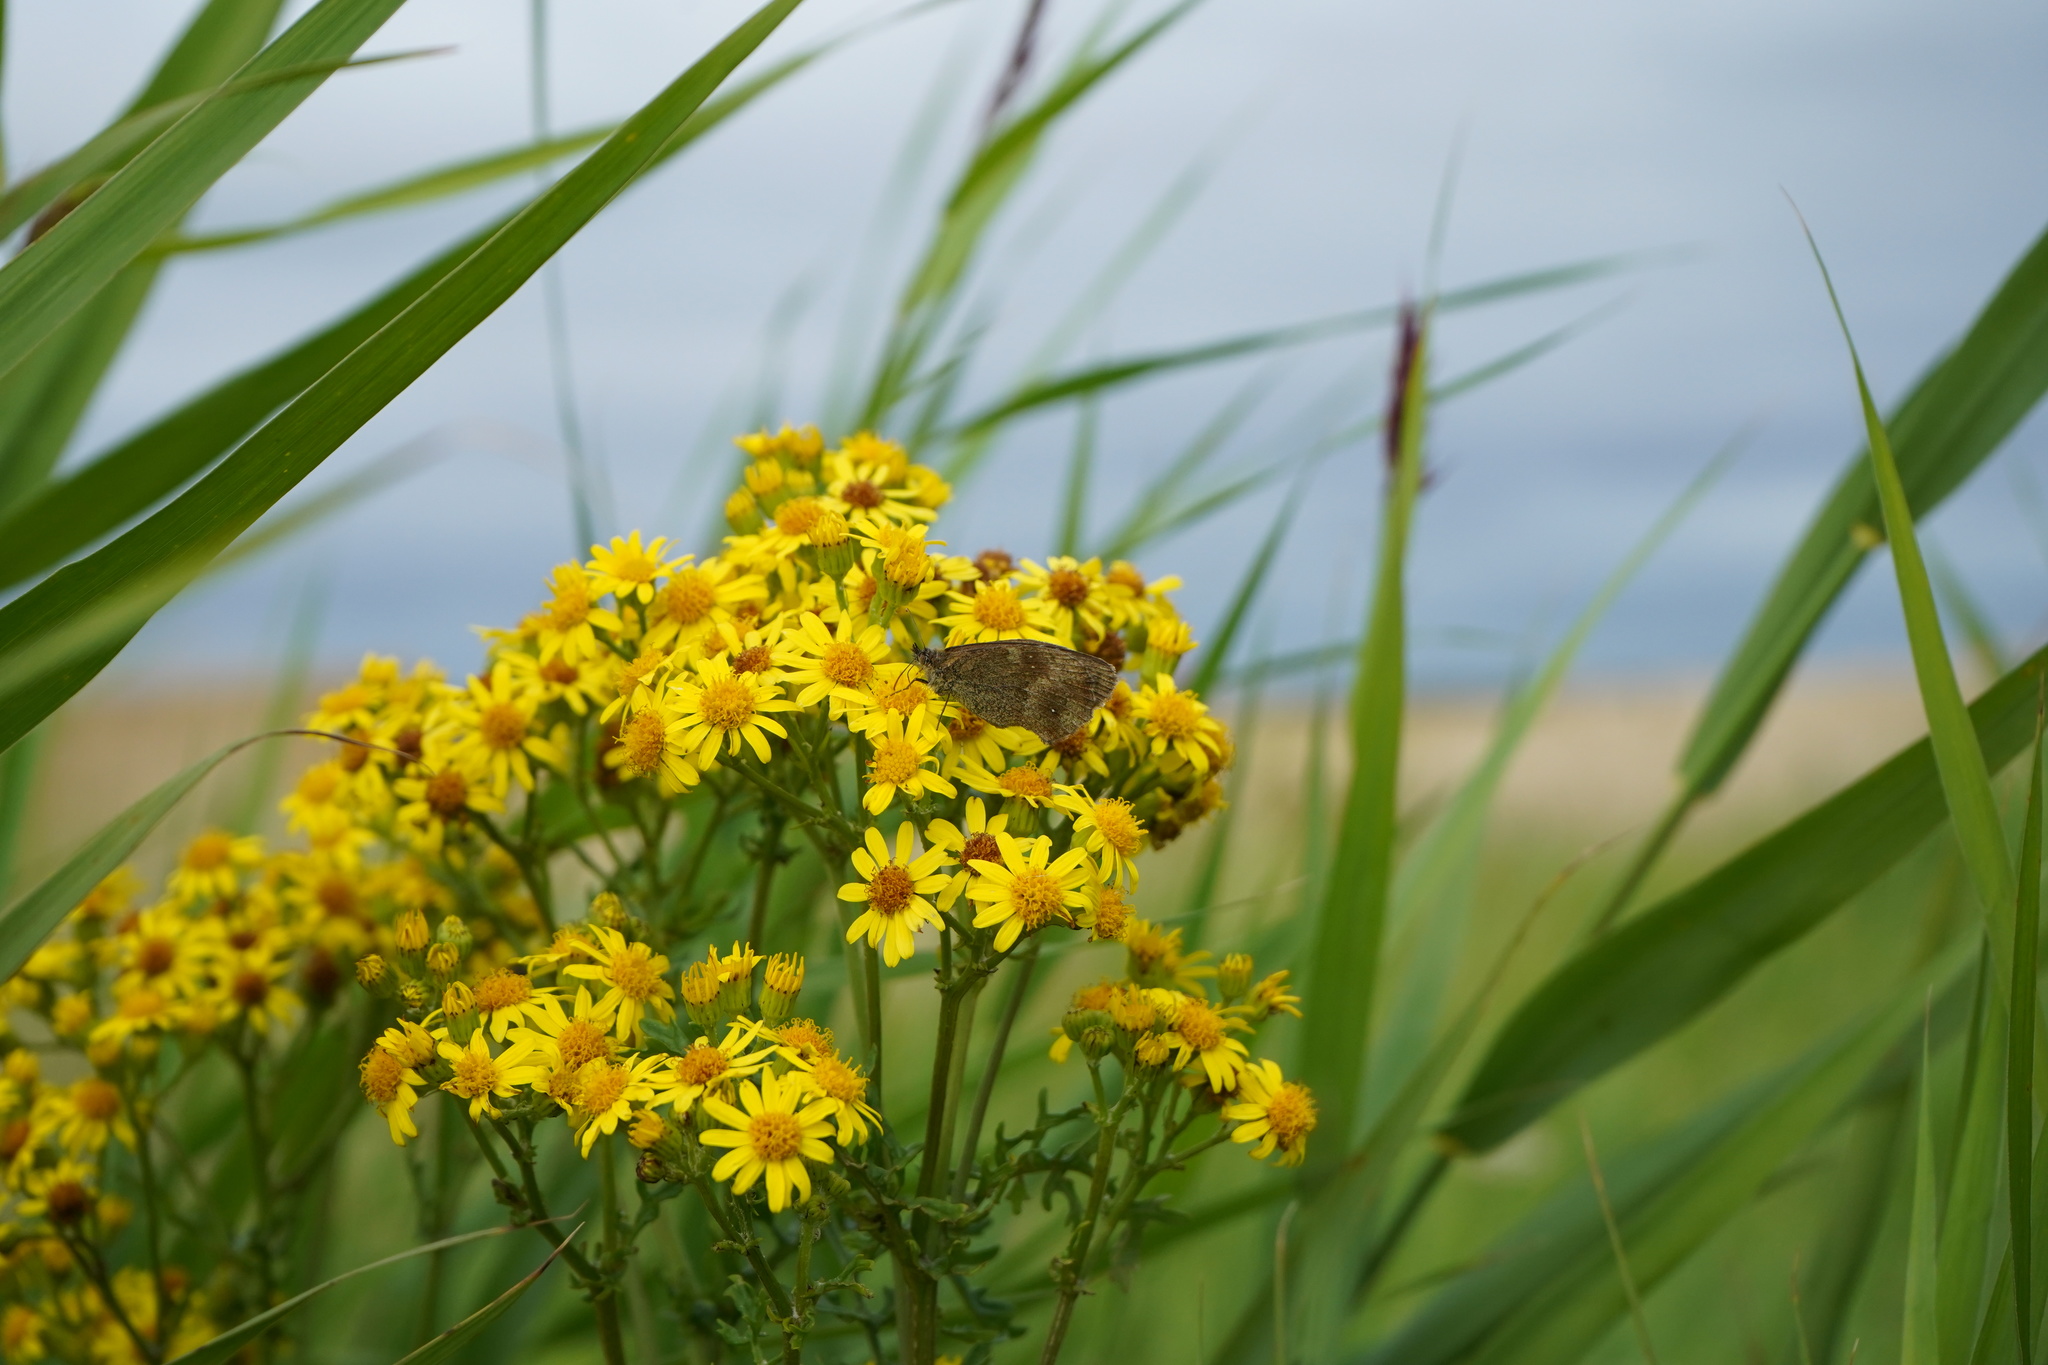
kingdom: Animalia
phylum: Arthropoda
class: Insecta
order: Lepidoptera
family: Nymphalidae
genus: Pyronia
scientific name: Pyronia tithonus
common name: Gatekeeper
